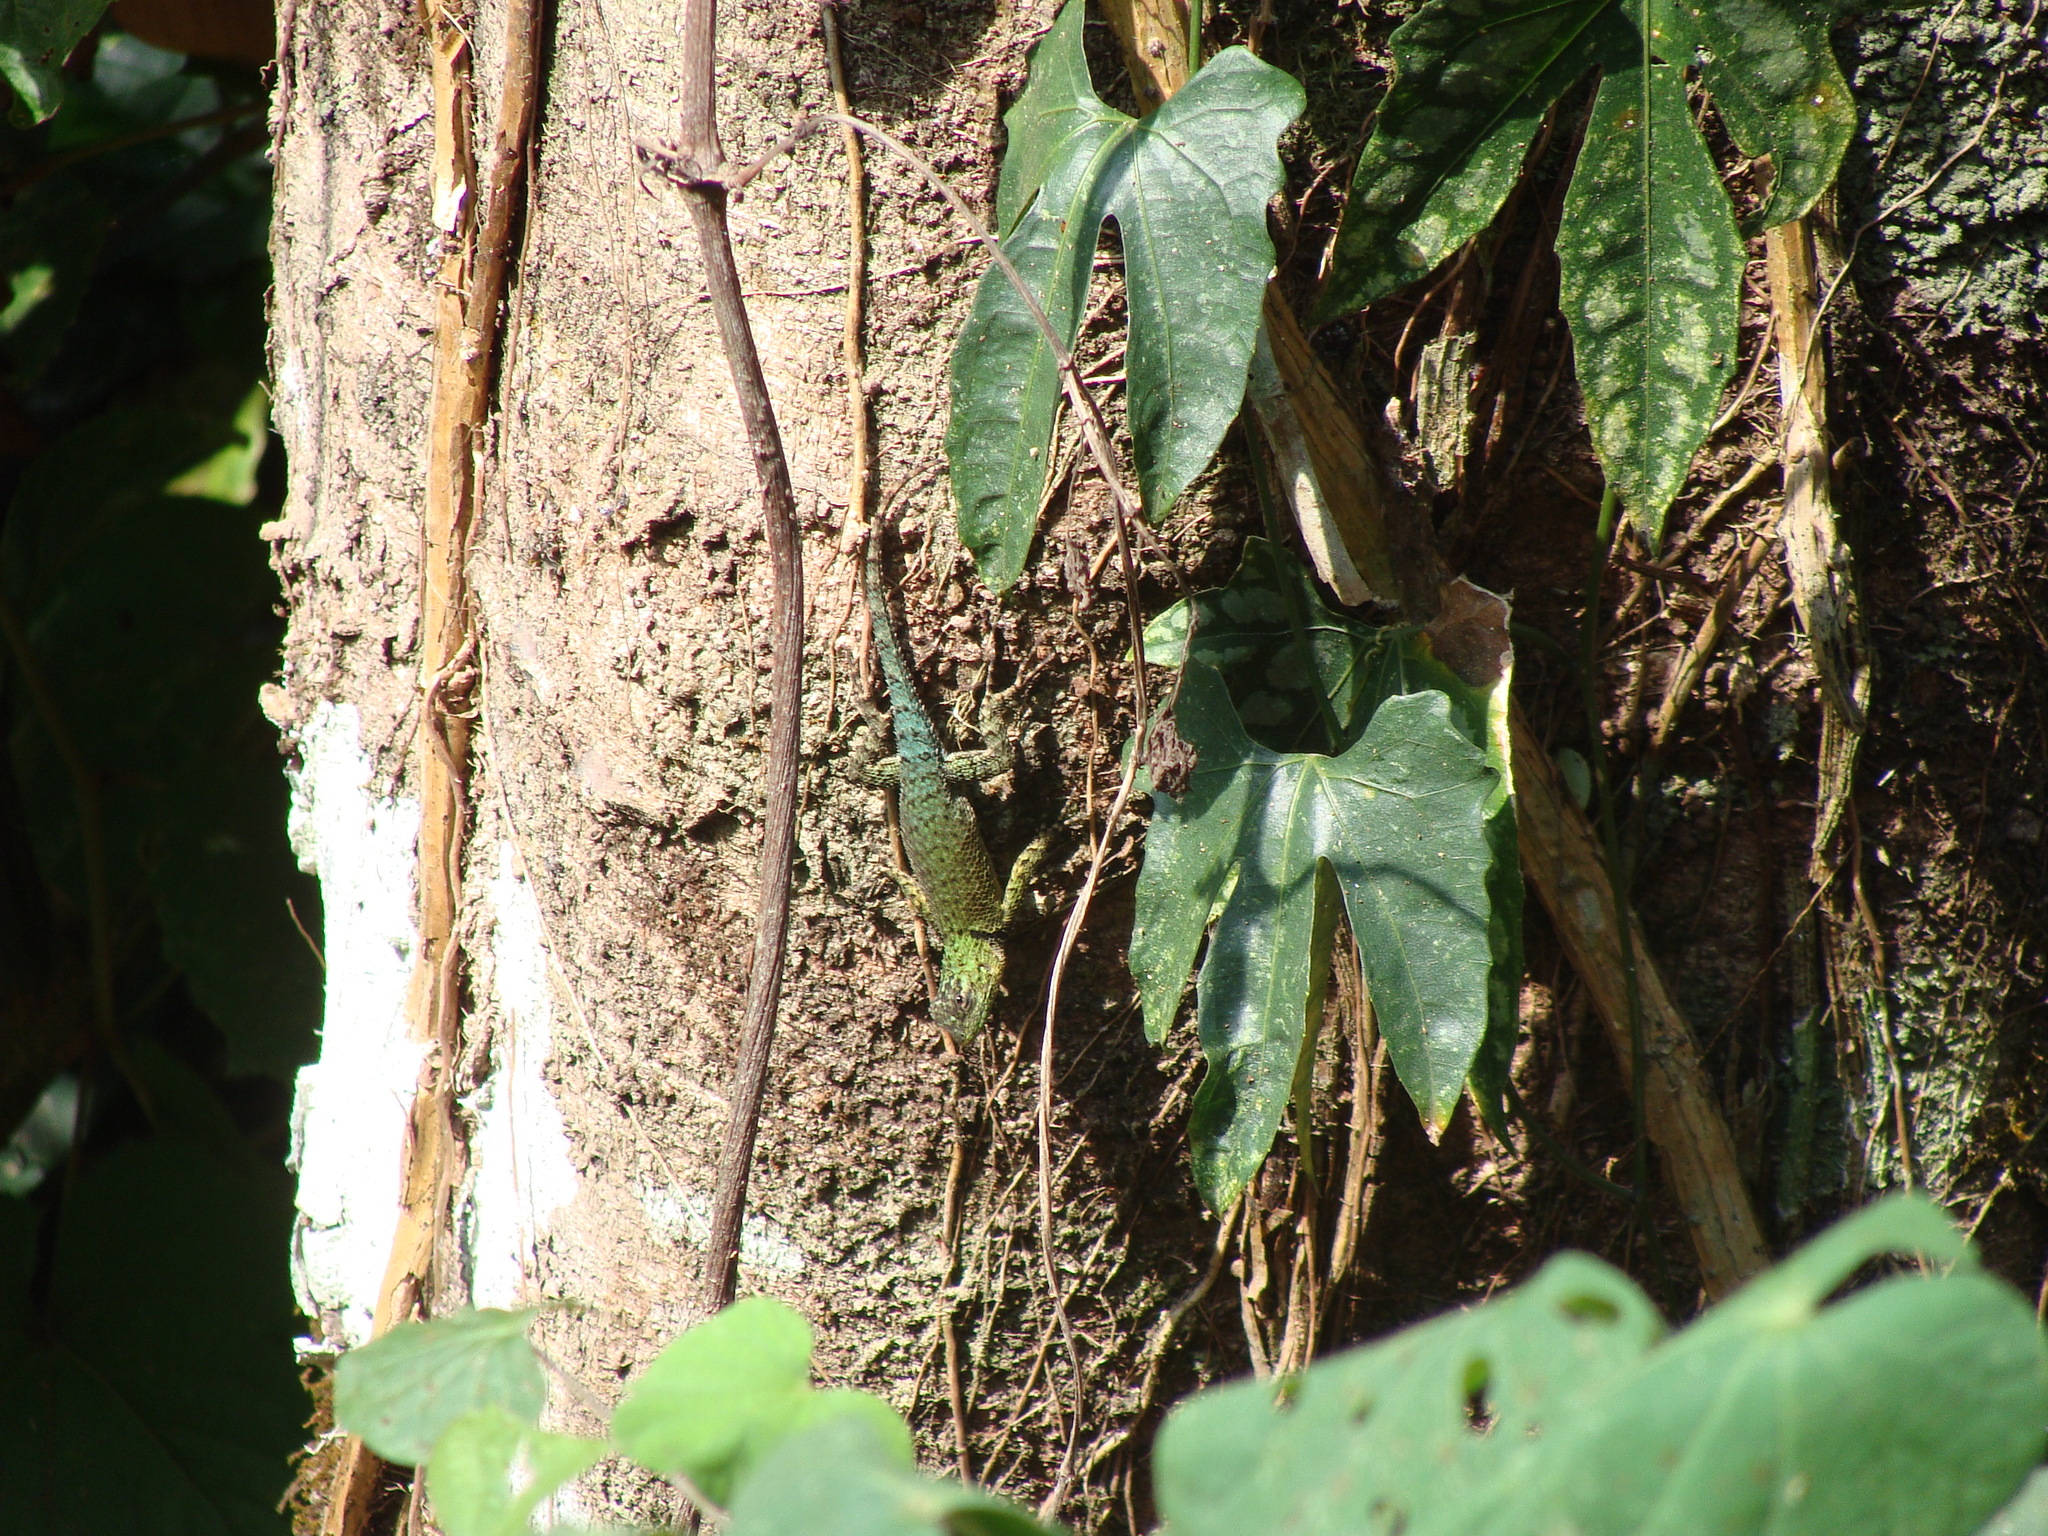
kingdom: Animalia
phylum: Chordata
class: Squamata
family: Phrynosomatidae
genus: Sceloporus
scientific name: Sceloporus smaragdinus
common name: Bocourt’s emerald lizard
